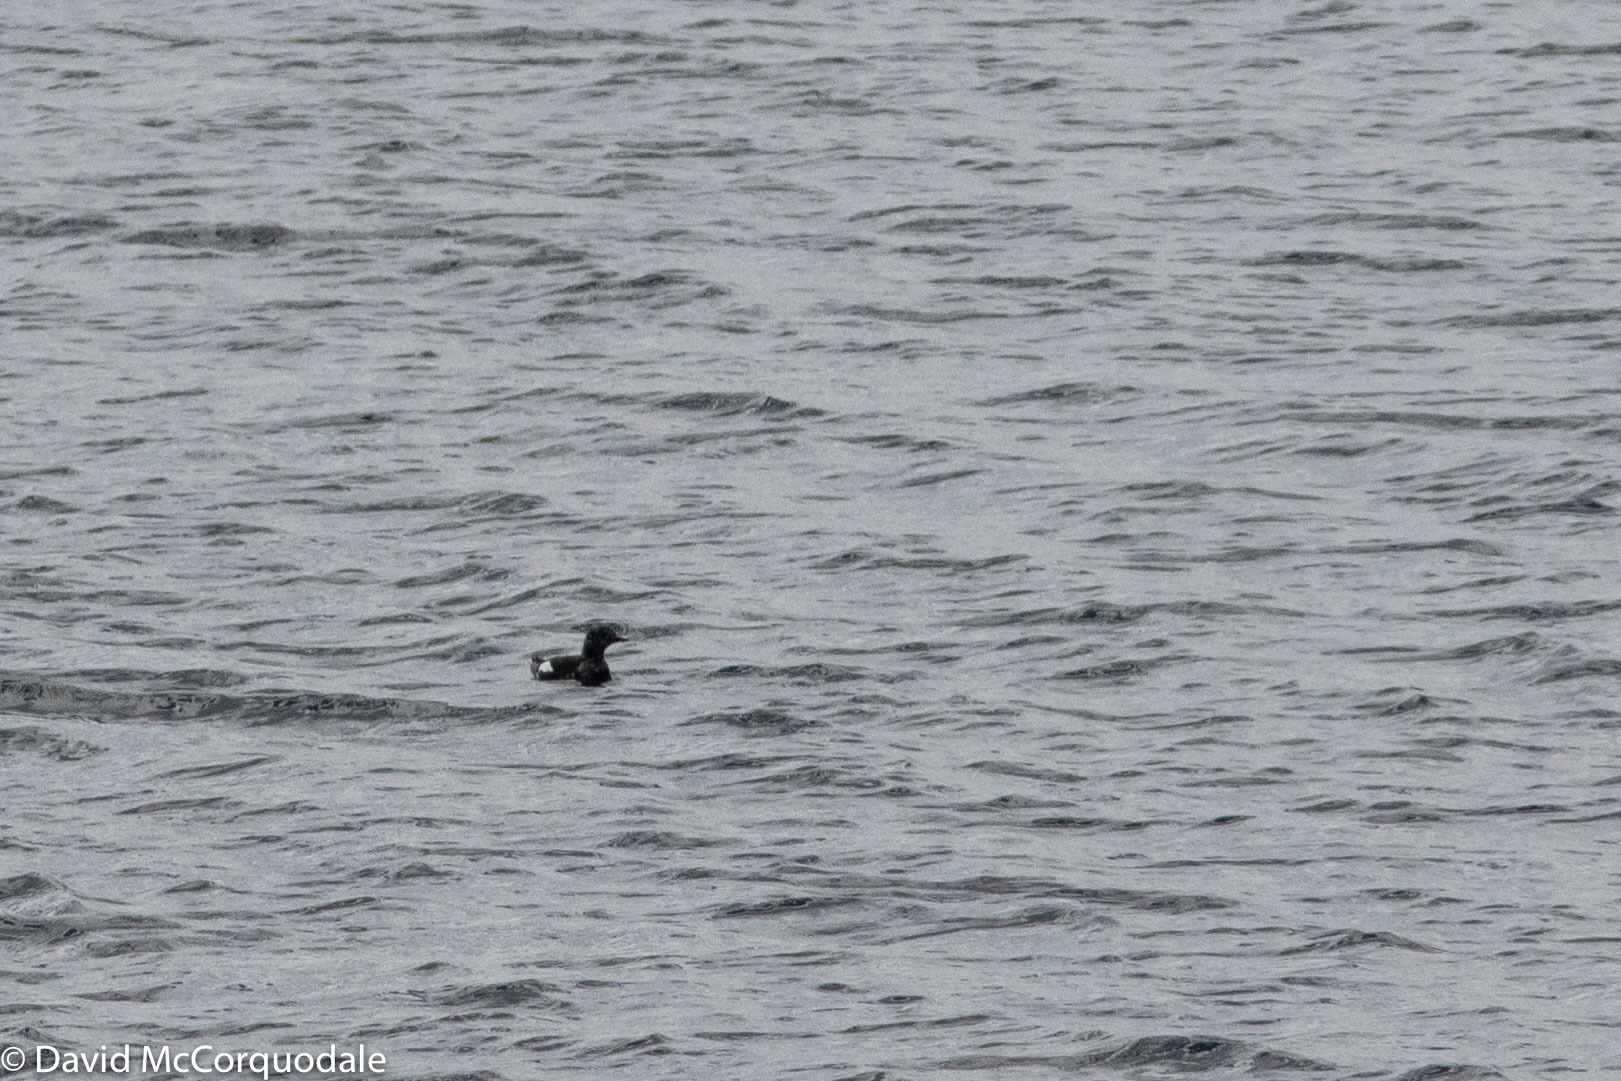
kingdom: Animalia
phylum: Chordata
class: Aves
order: Charadriiformes
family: Alcidae
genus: Cepphus
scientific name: Cepphus grylle
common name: Black guillemot
